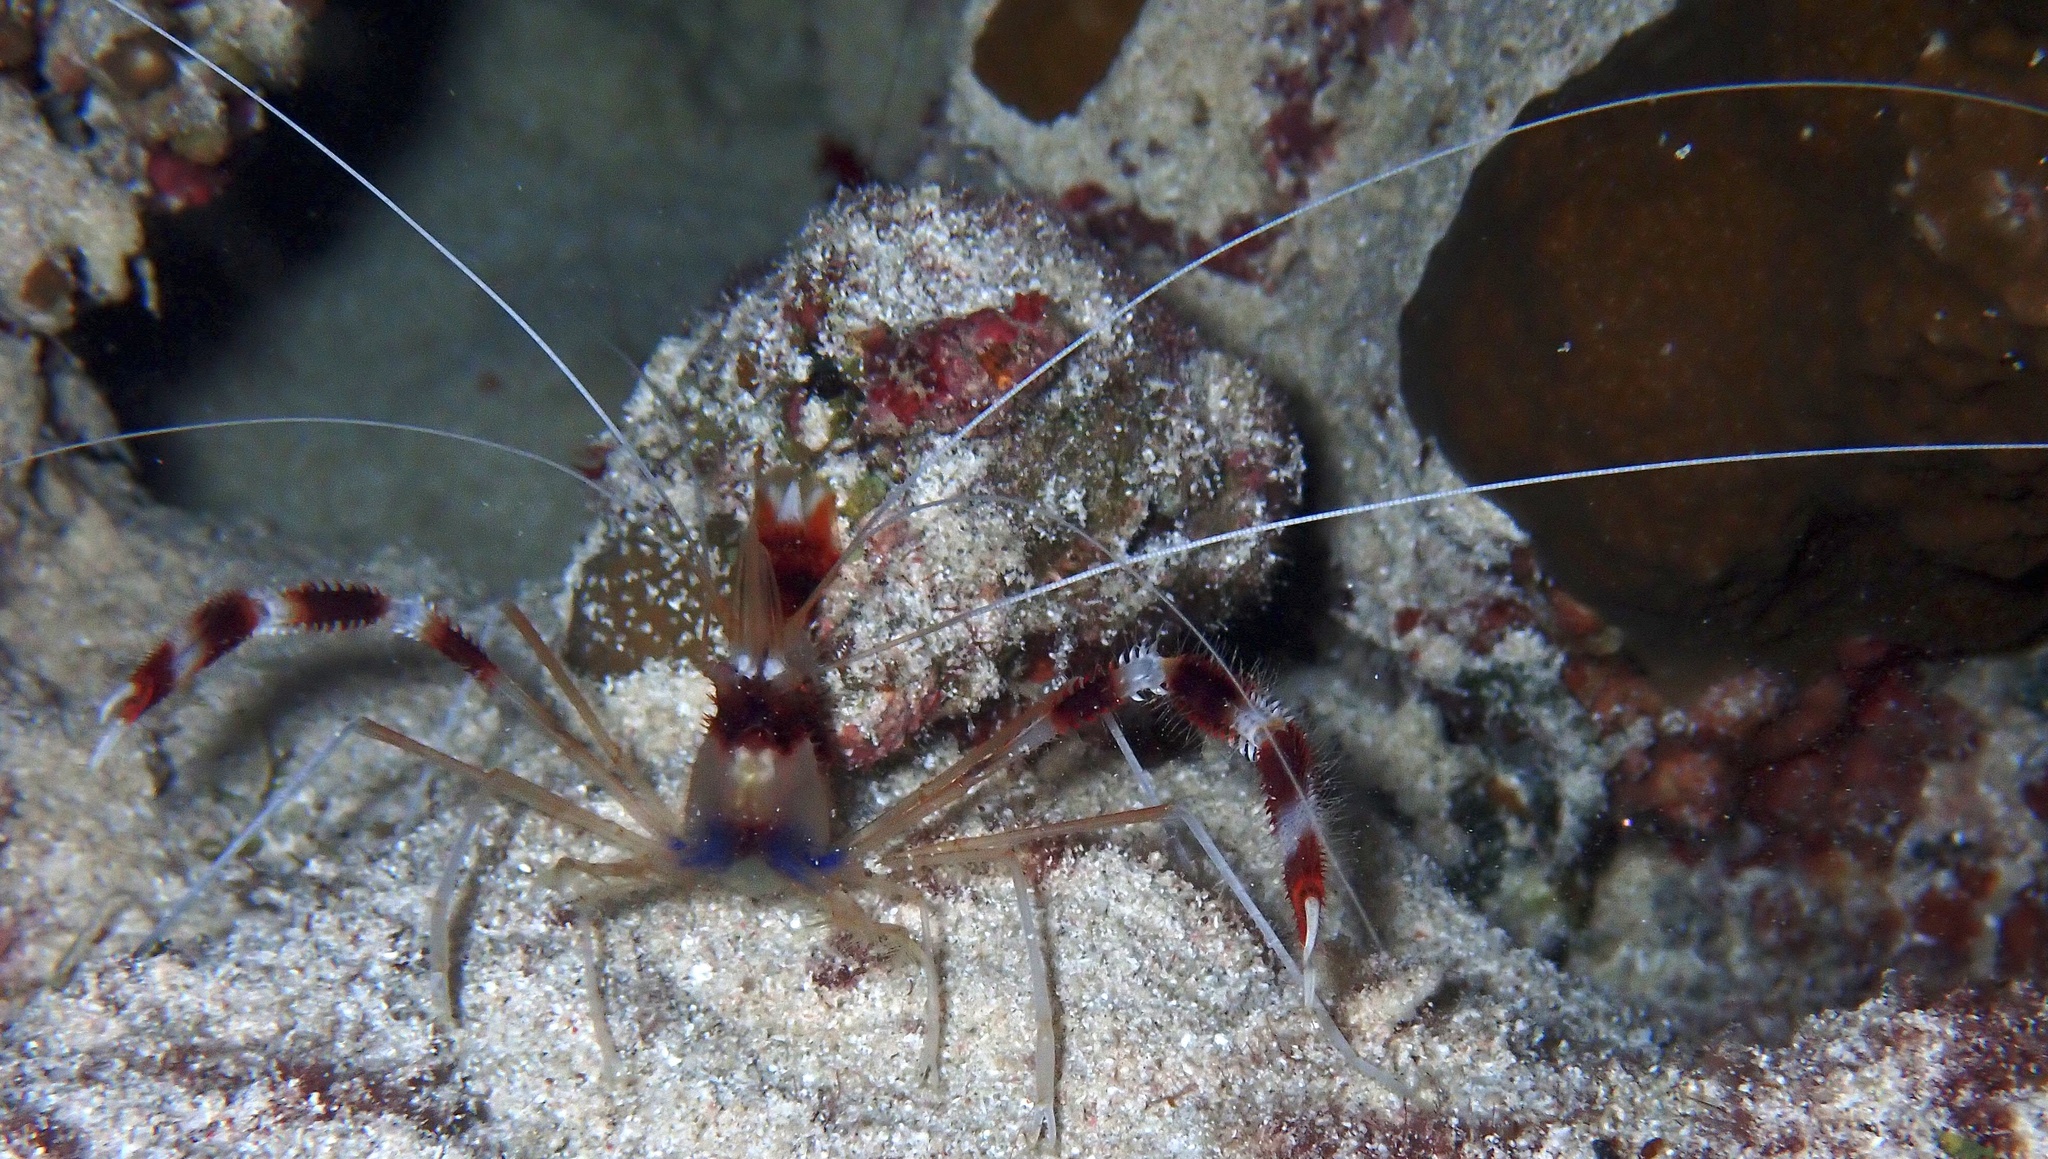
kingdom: Animalia
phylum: Arthropoda
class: Malacostraca
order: Decapoda
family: Stenopodidae
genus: Stenopus
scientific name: Stenopus hispidus
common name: Banded coral shrimp
